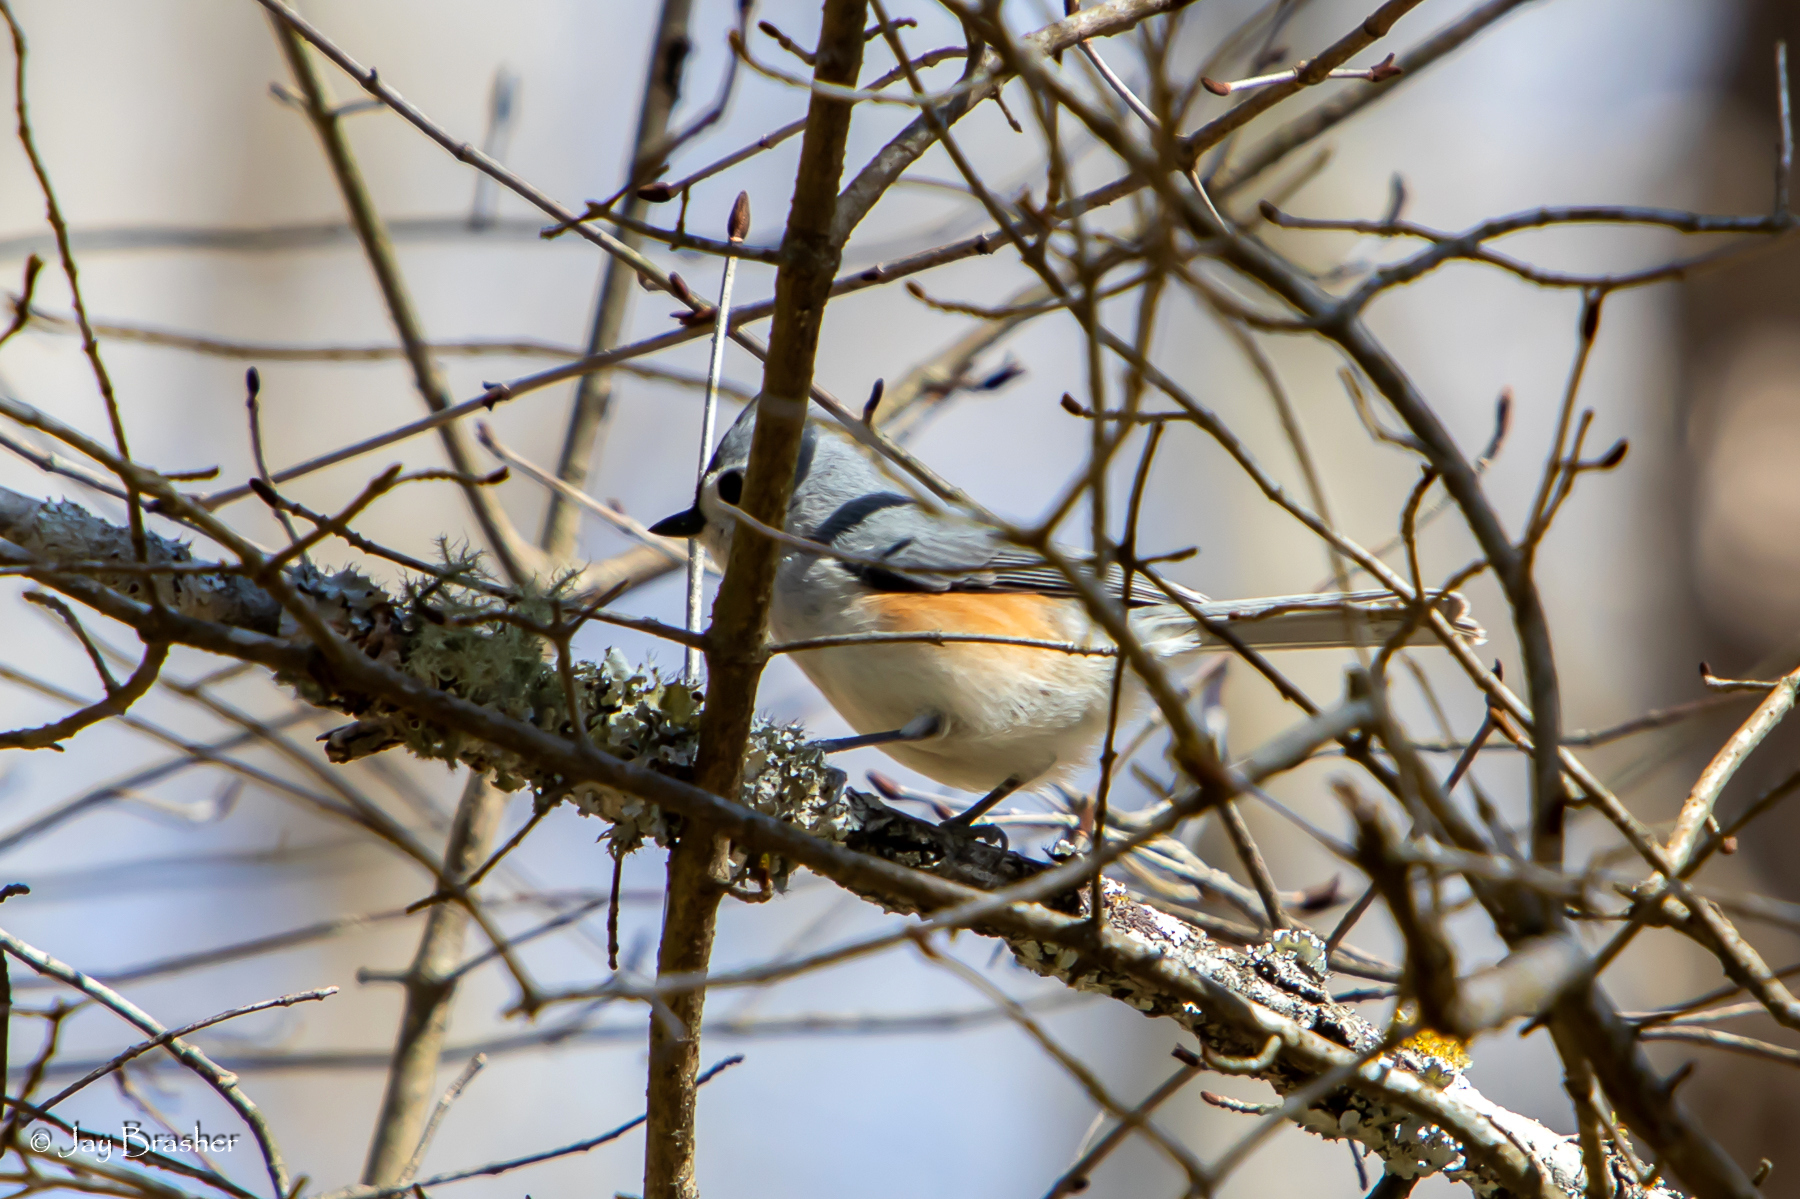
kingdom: Animalia
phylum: Chordata
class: Aves
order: Passeriformes
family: Paridae
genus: Baeolophus
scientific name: Baeolophus bicolor
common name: Tufted titmouse
